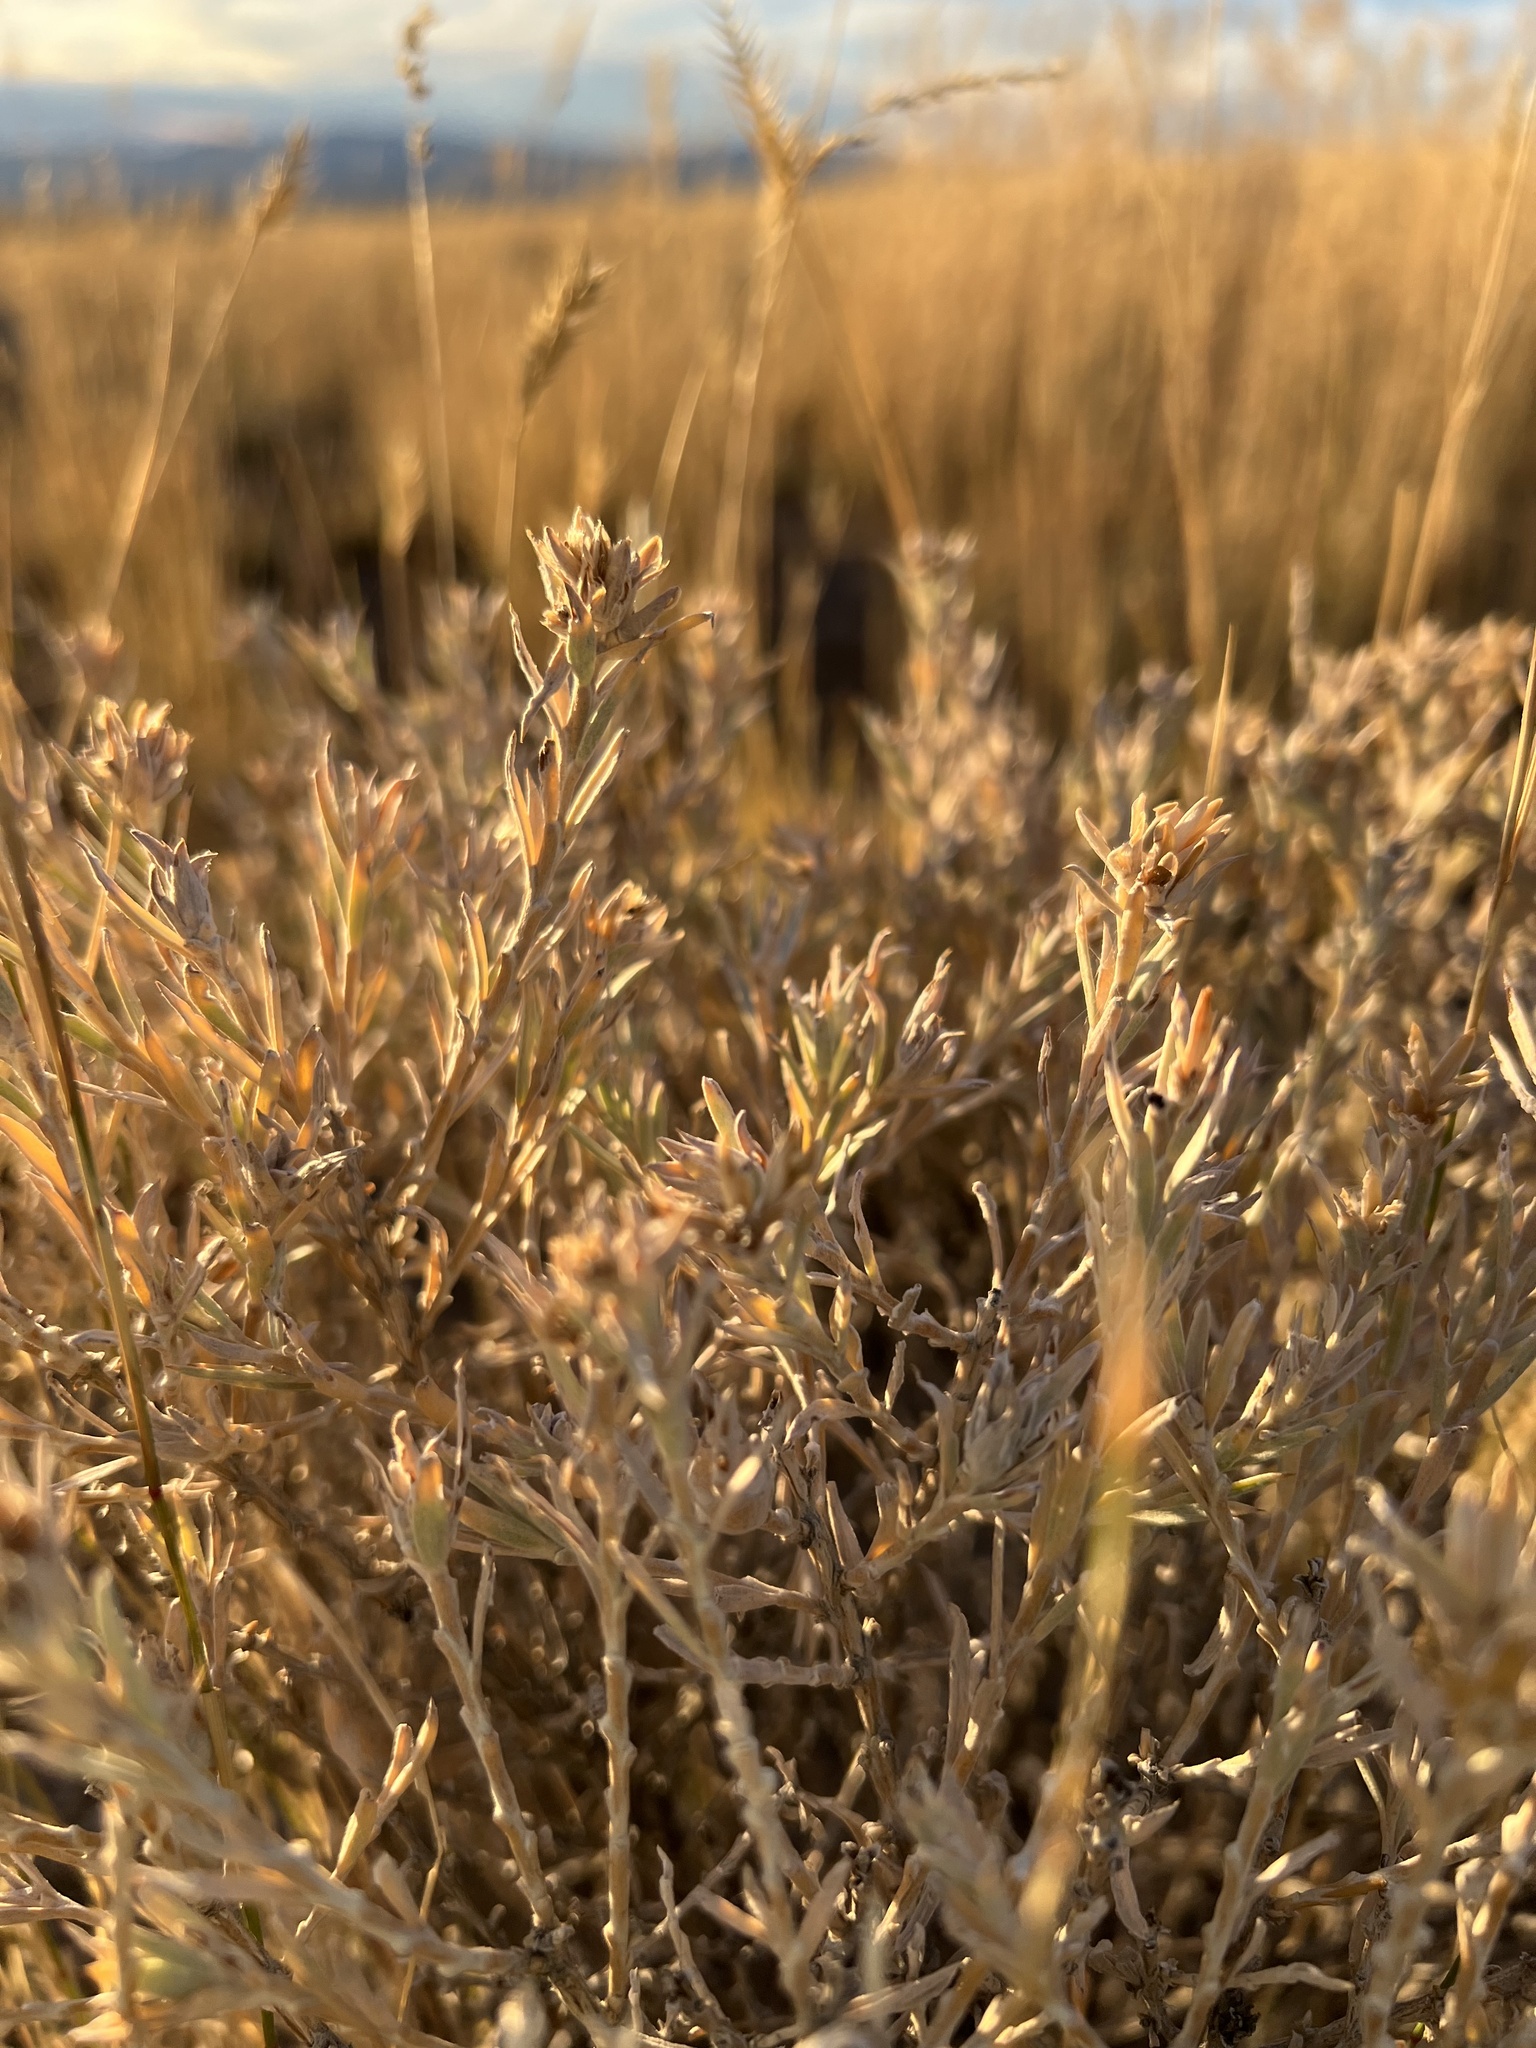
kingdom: Plantae
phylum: Tracheophyta
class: Magnoliopsida
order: Asterales
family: Asteraceae
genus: Tetradymia
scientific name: Tetradymia canescens
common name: Spineless horsebrush
